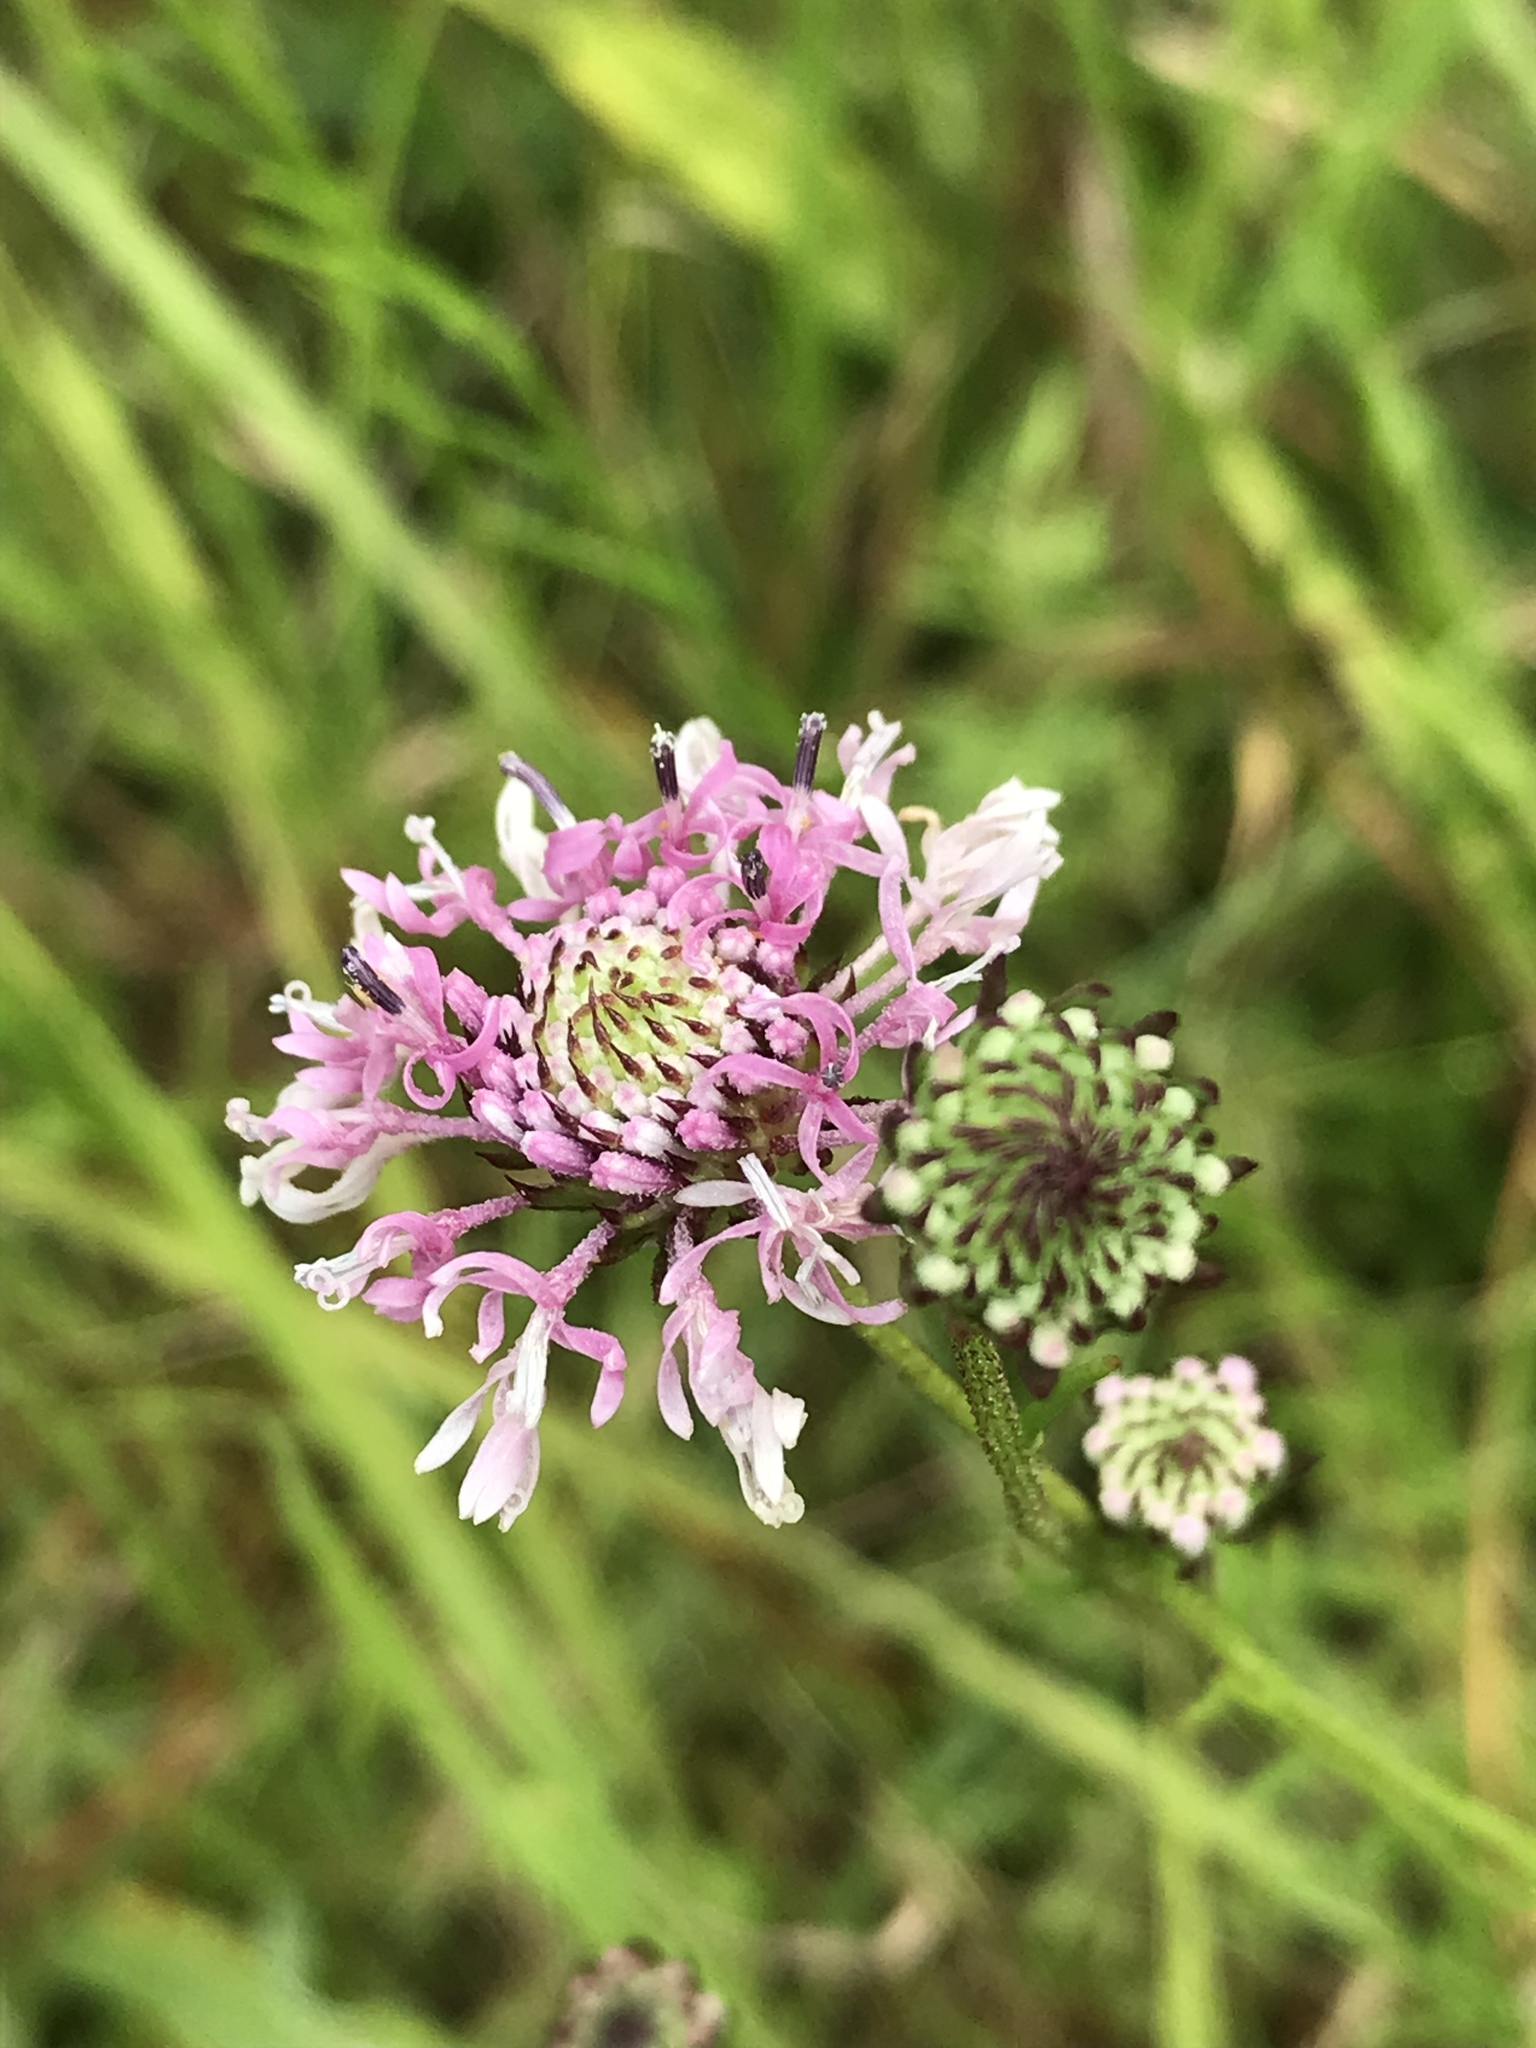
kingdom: Plantae
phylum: Tracheophyta
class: Magnoliopsida
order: Asterales
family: Asteraceae
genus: Marshallia
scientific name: Marshallia graminifolia
